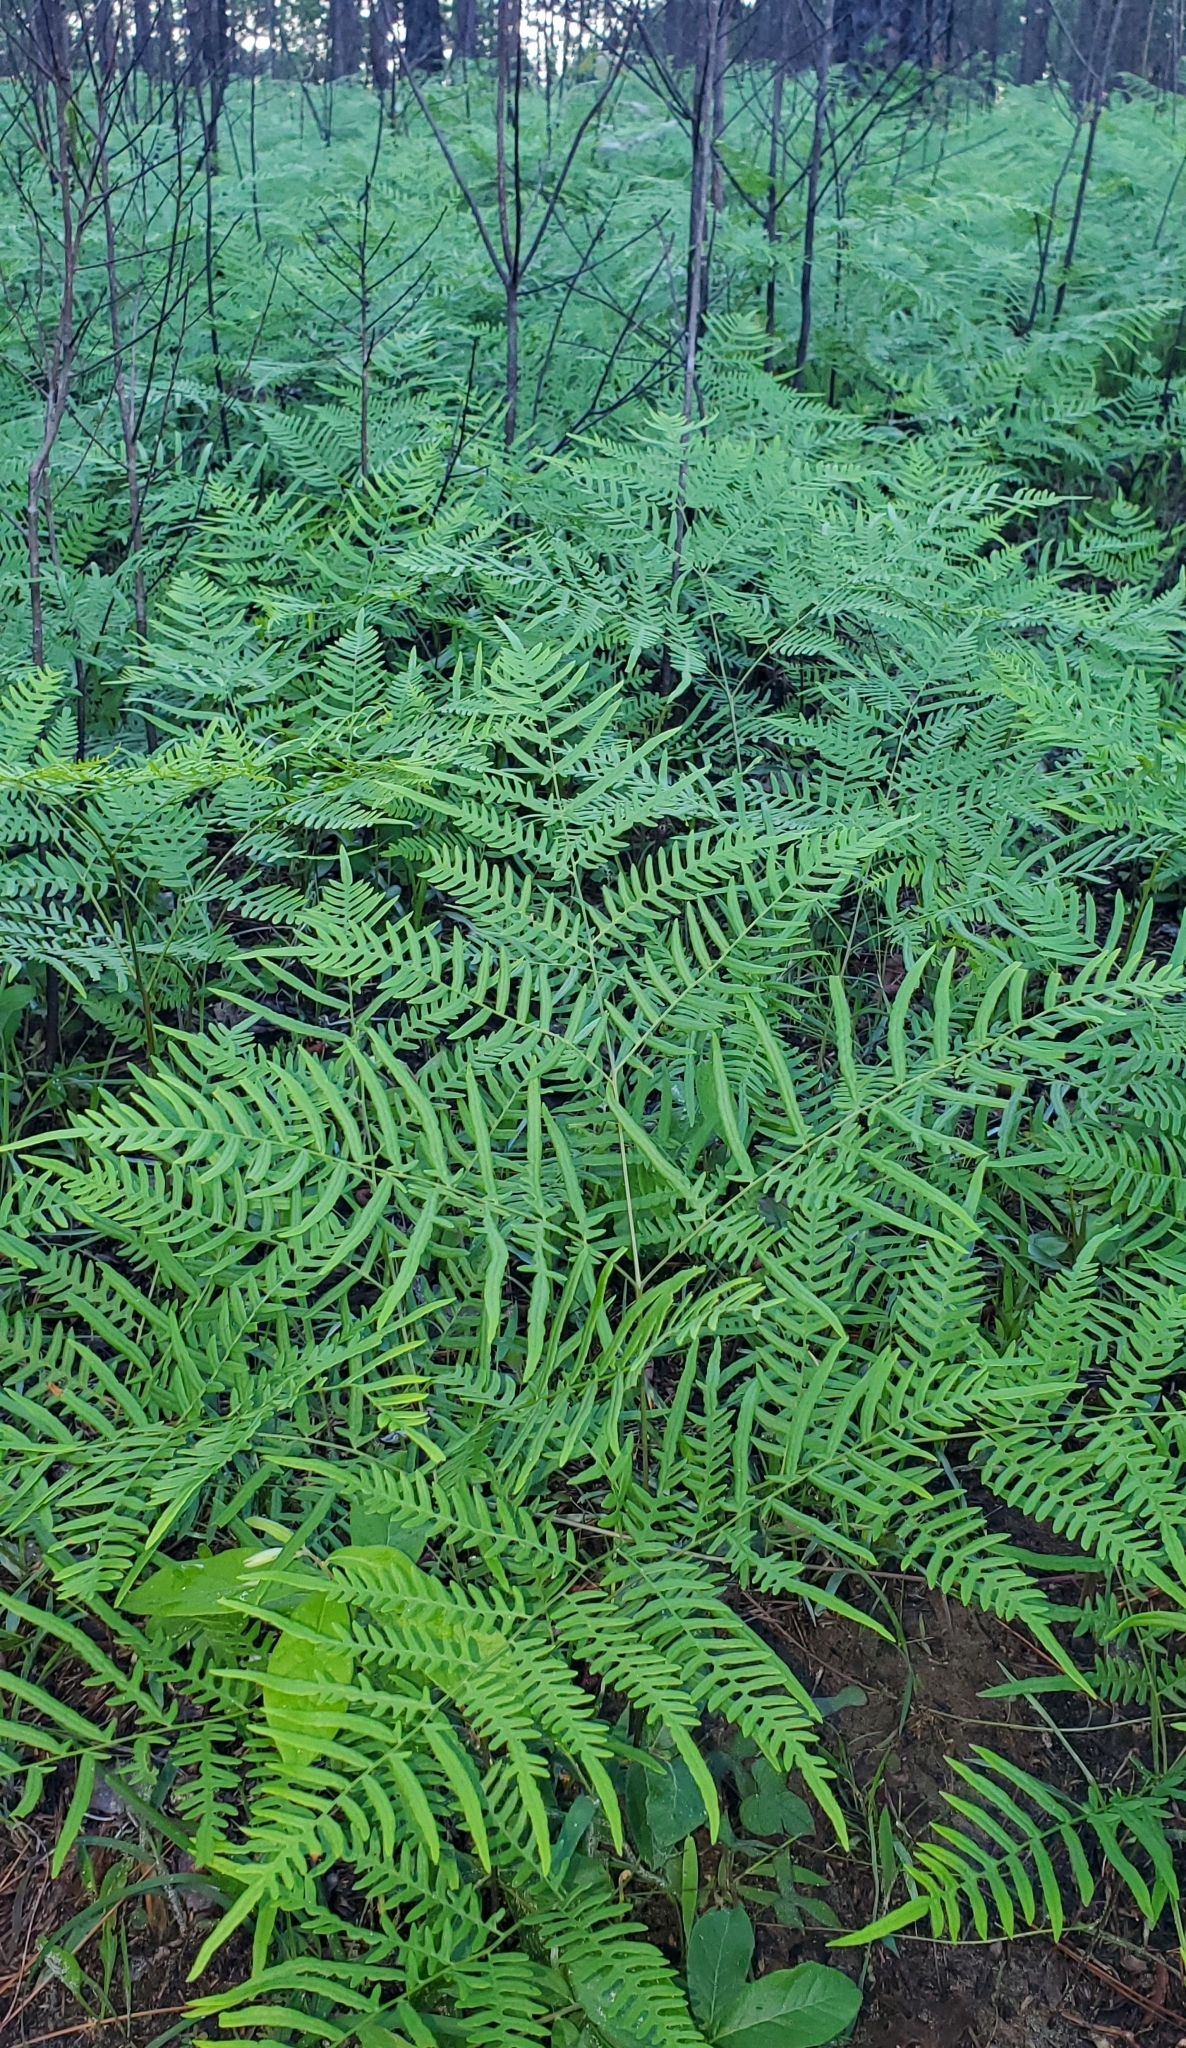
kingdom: Plantae
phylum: Tracheophyta
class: Polypodiopsida
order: Polypodiales
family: Dennstaedtiaceae
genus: Pteridium
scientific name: Pteridium aquilinum
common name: Bracken
